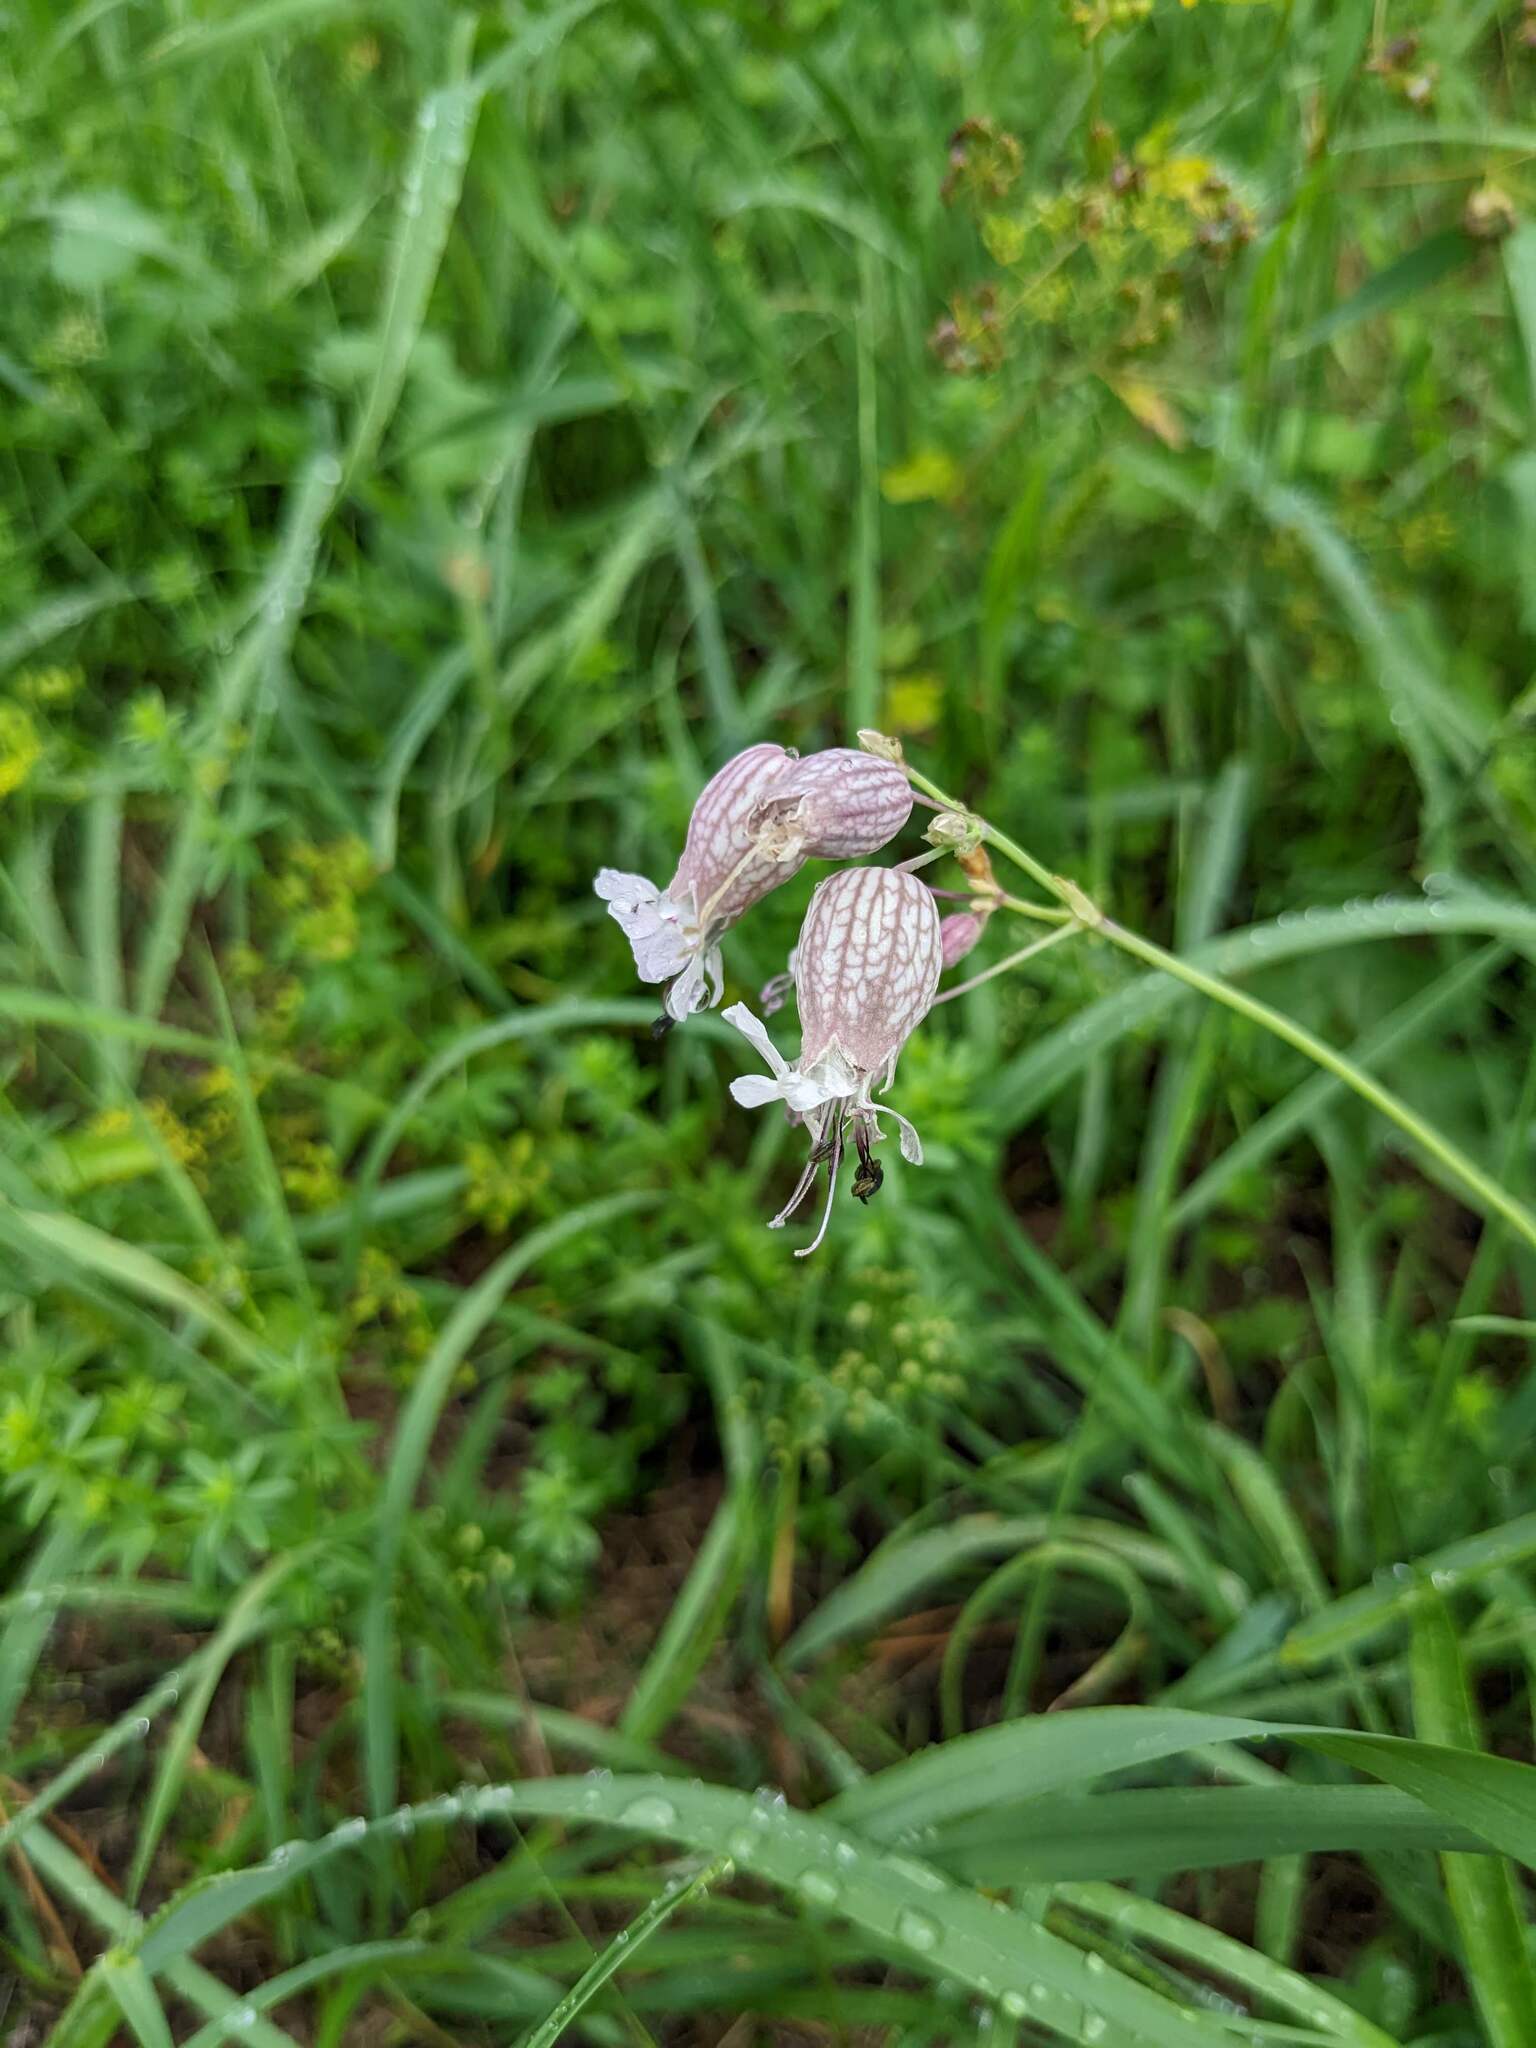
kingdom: Plantae
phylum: Tracheophyta
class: Magnoliopsida
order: Caryophyllales
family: Caryophyllaceae
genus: Silene
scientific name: Silene vulgaris
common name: Bladder campion
